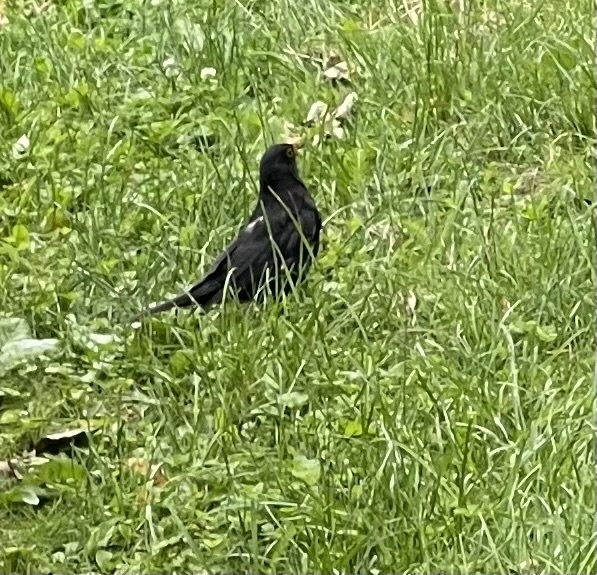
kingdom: Animalia
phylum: Chordata
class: Aves
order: Passeriformes
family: Turdidae
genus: Turdus
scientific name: Turdus merula
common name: Common blackbird
